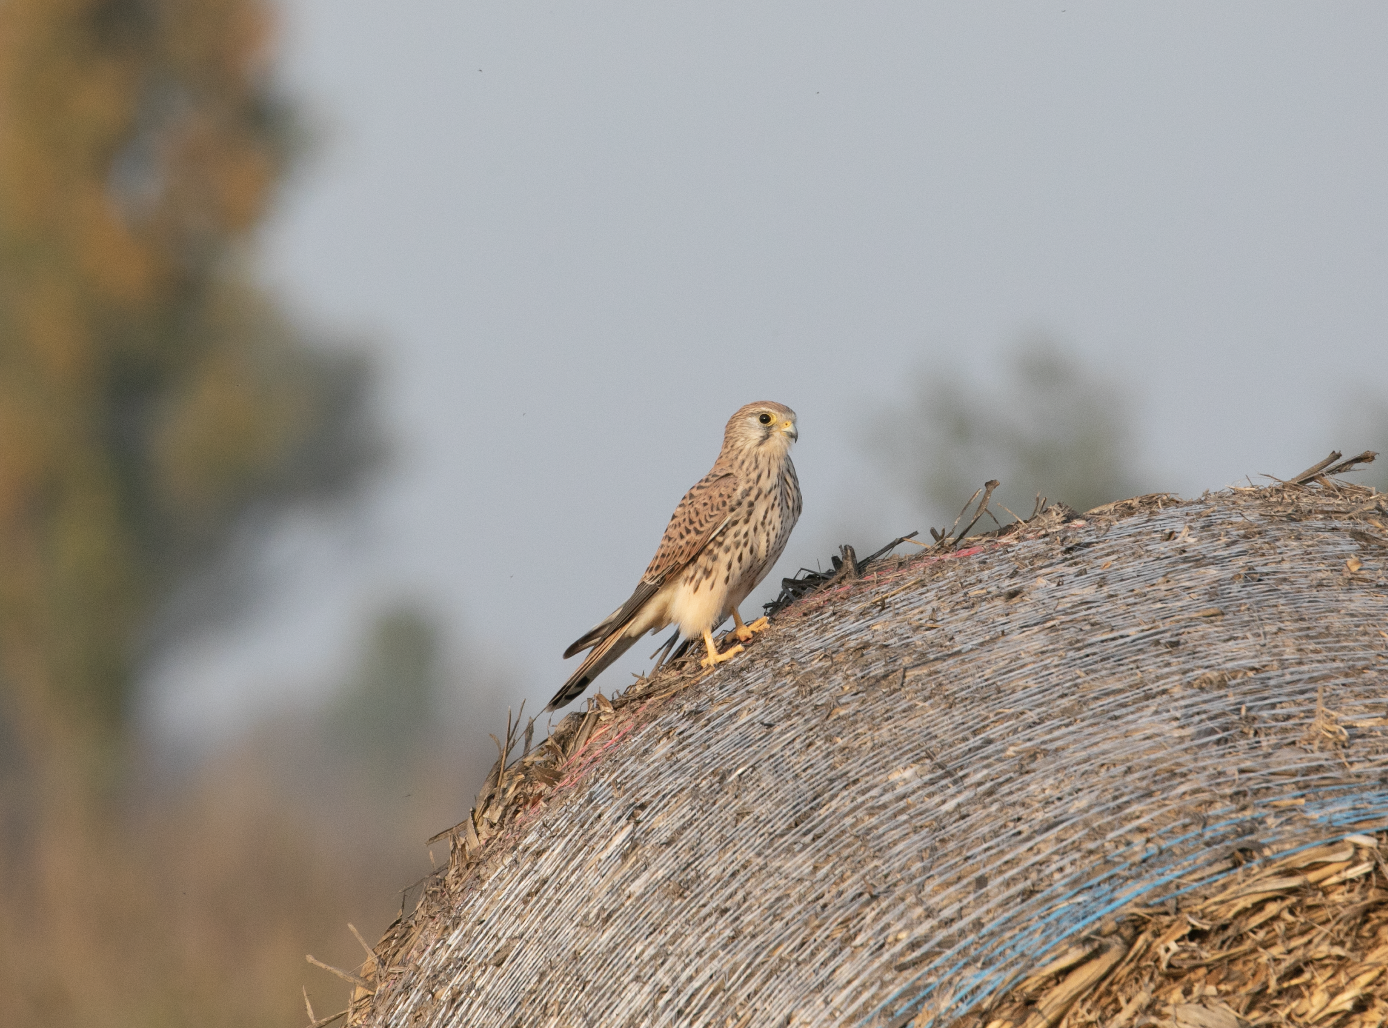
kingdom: Animalia
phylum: Chordata
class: Aves
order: Falconiformes
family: Falconidae
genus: Falco
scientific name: Falco tinnunculus
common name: Common kestrel
